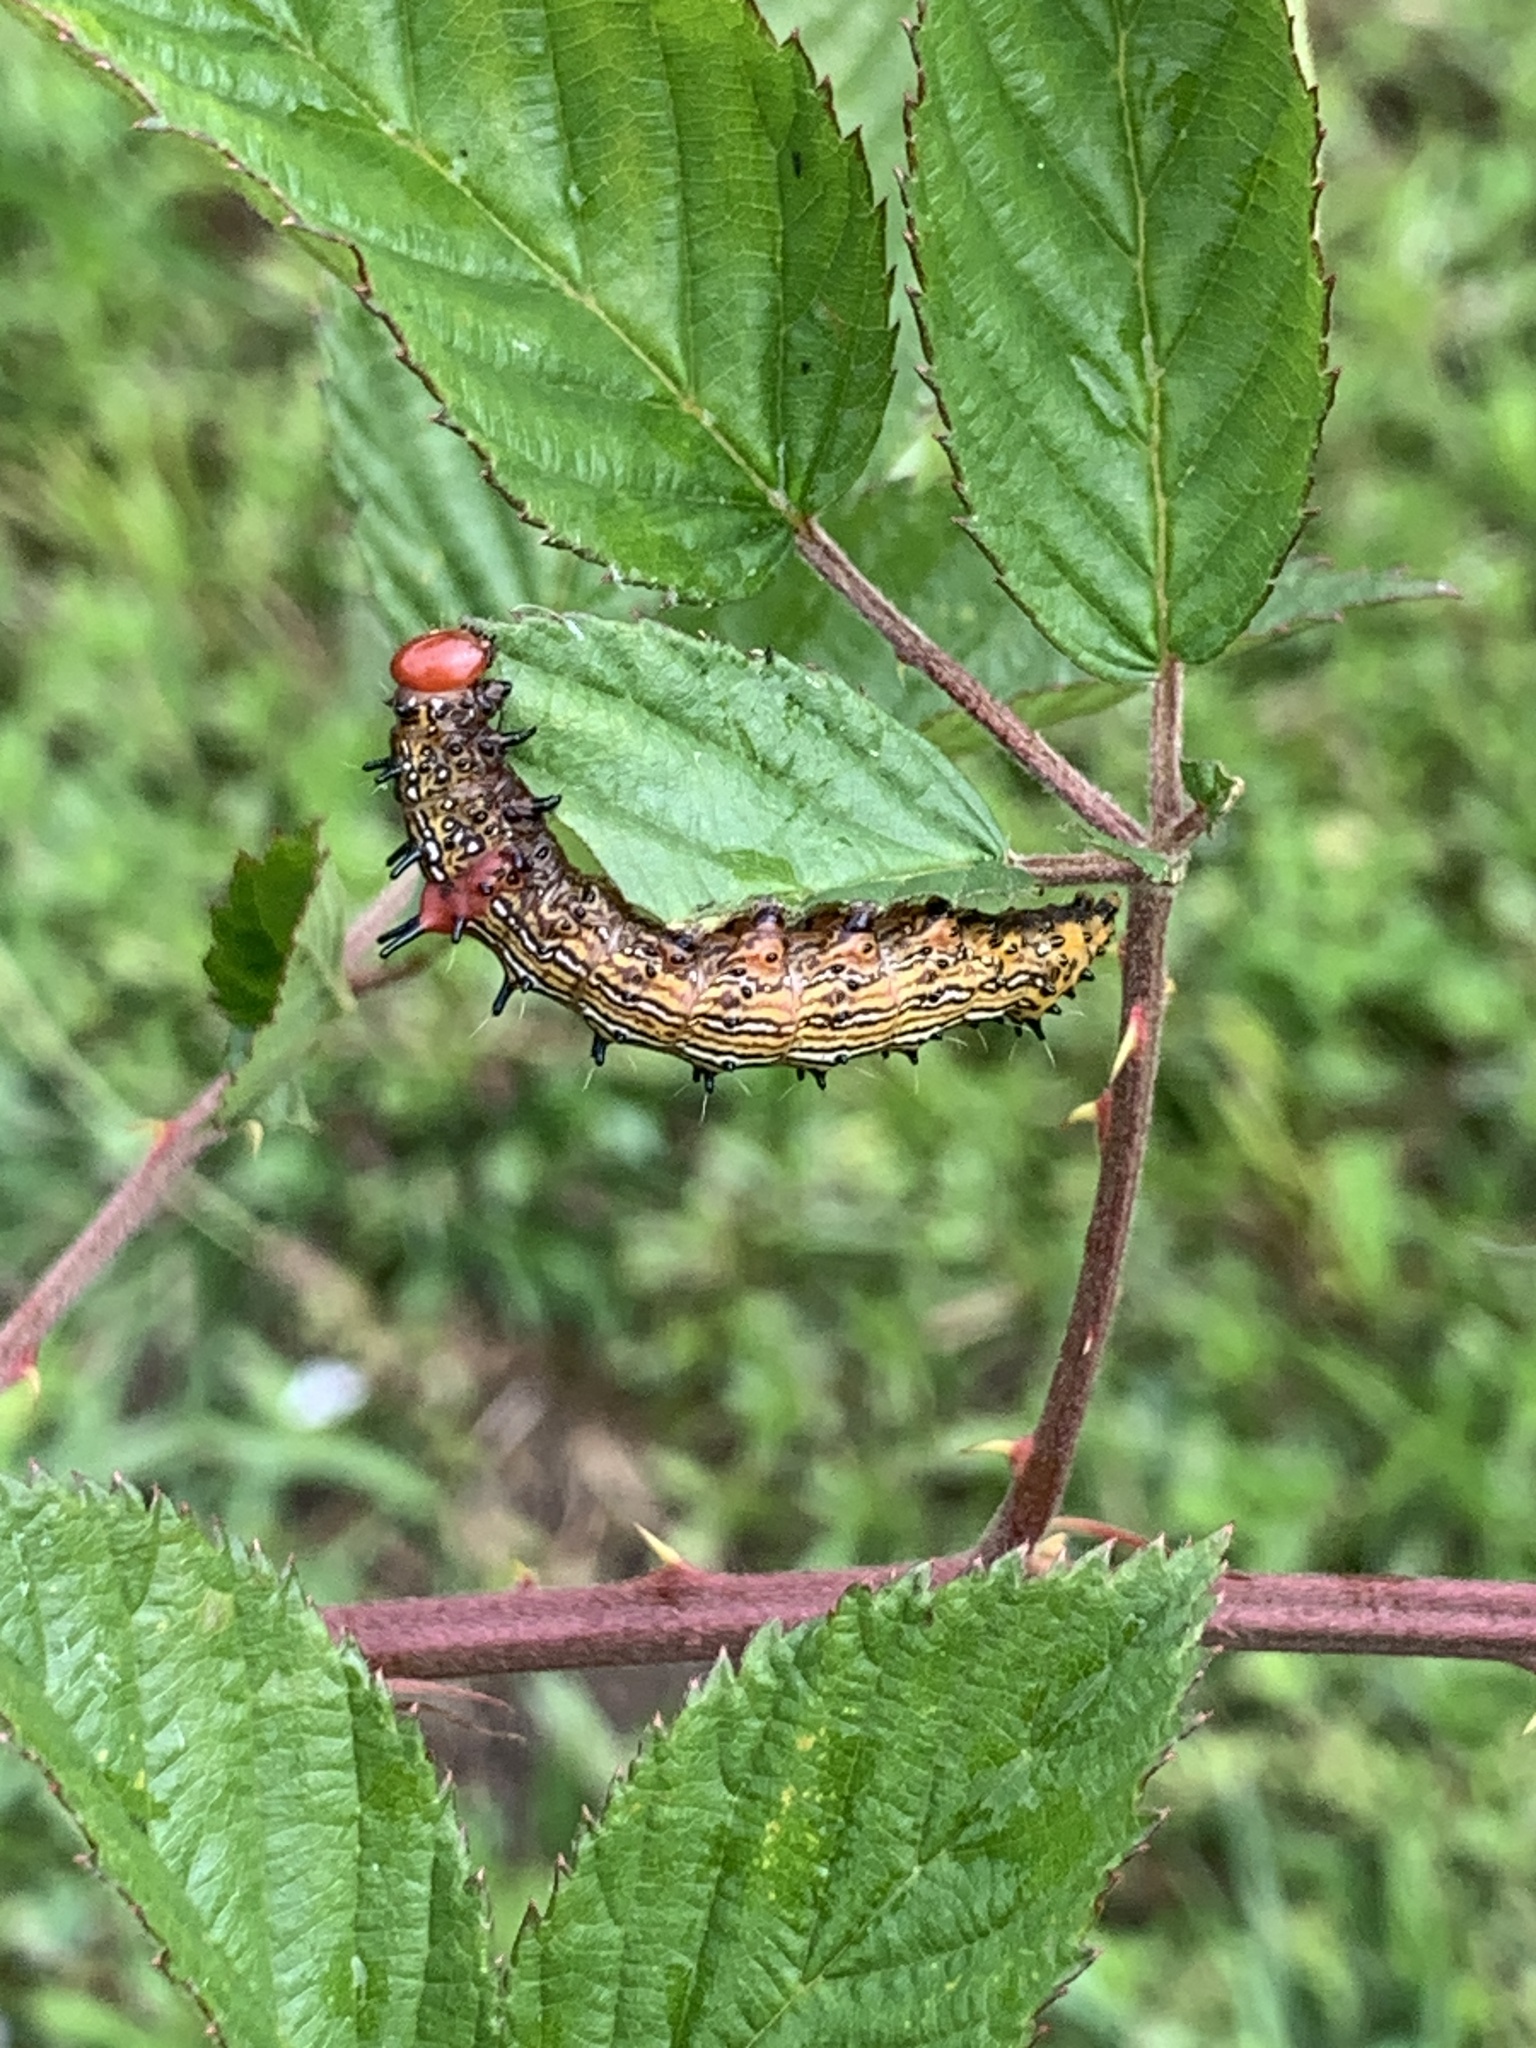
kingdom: Animalia
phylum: Arthropoda
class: Insecta
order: Lepidoptera
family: Notodontidae
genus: Schizura
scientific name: Schizura
